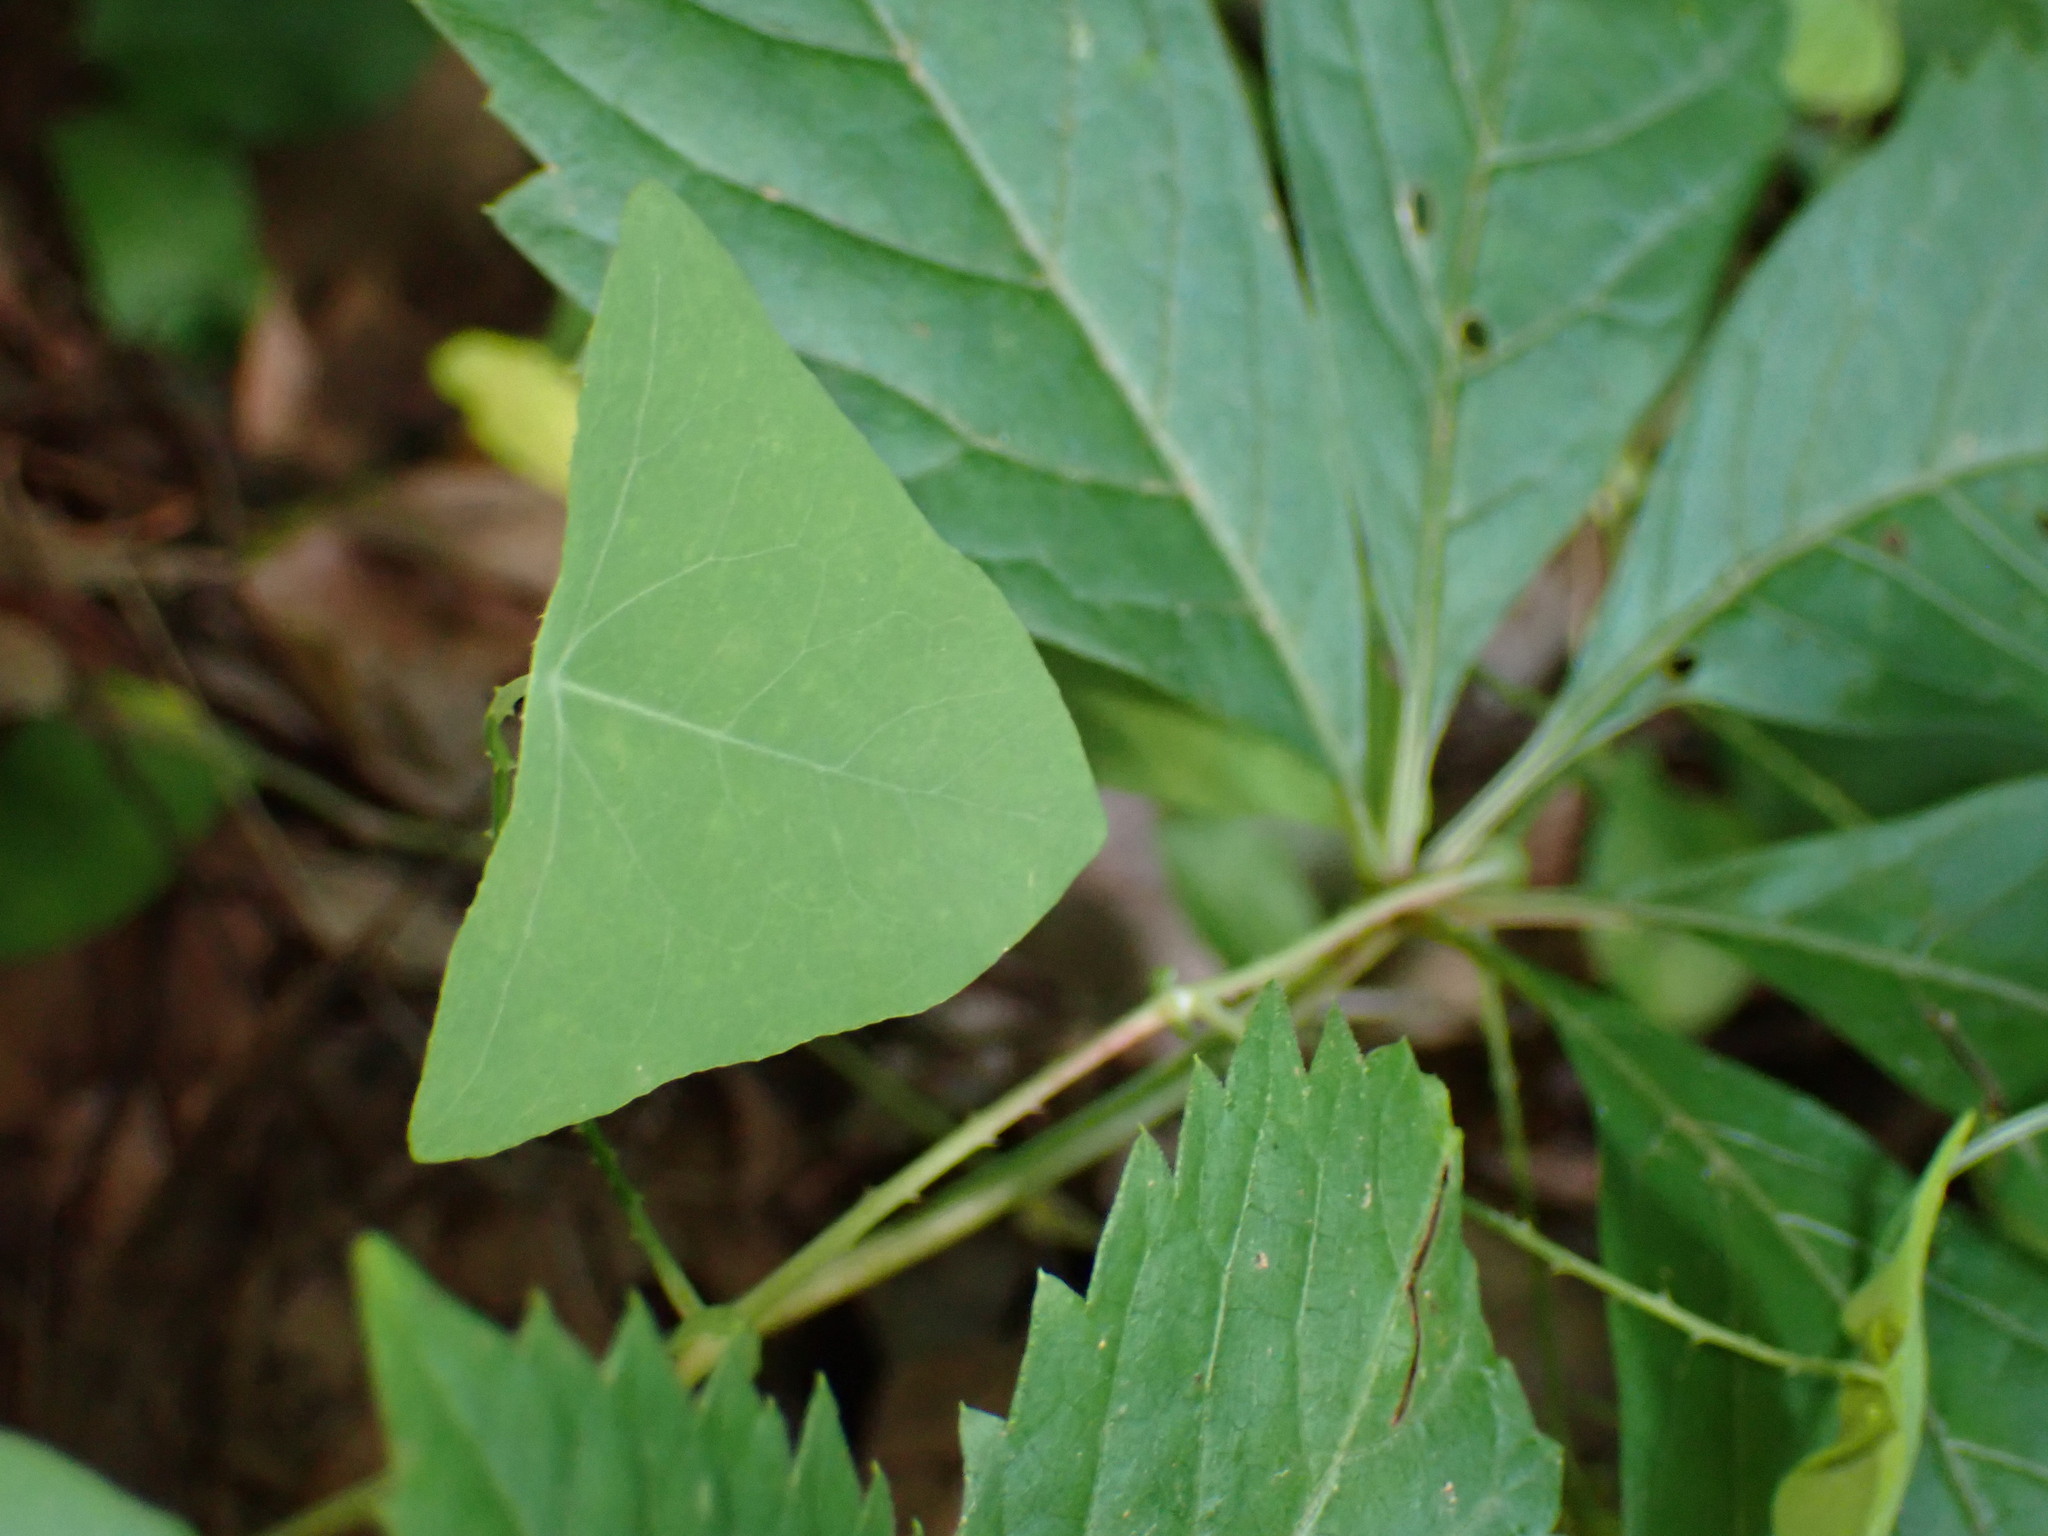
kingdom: Plantae
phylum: Tracheophyta
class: Magnoliopsida
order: Caryophyllales
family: Polygonaceae
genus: Persicaria
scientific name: Persicaria perfoliata
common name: Asiatic tearthumb
